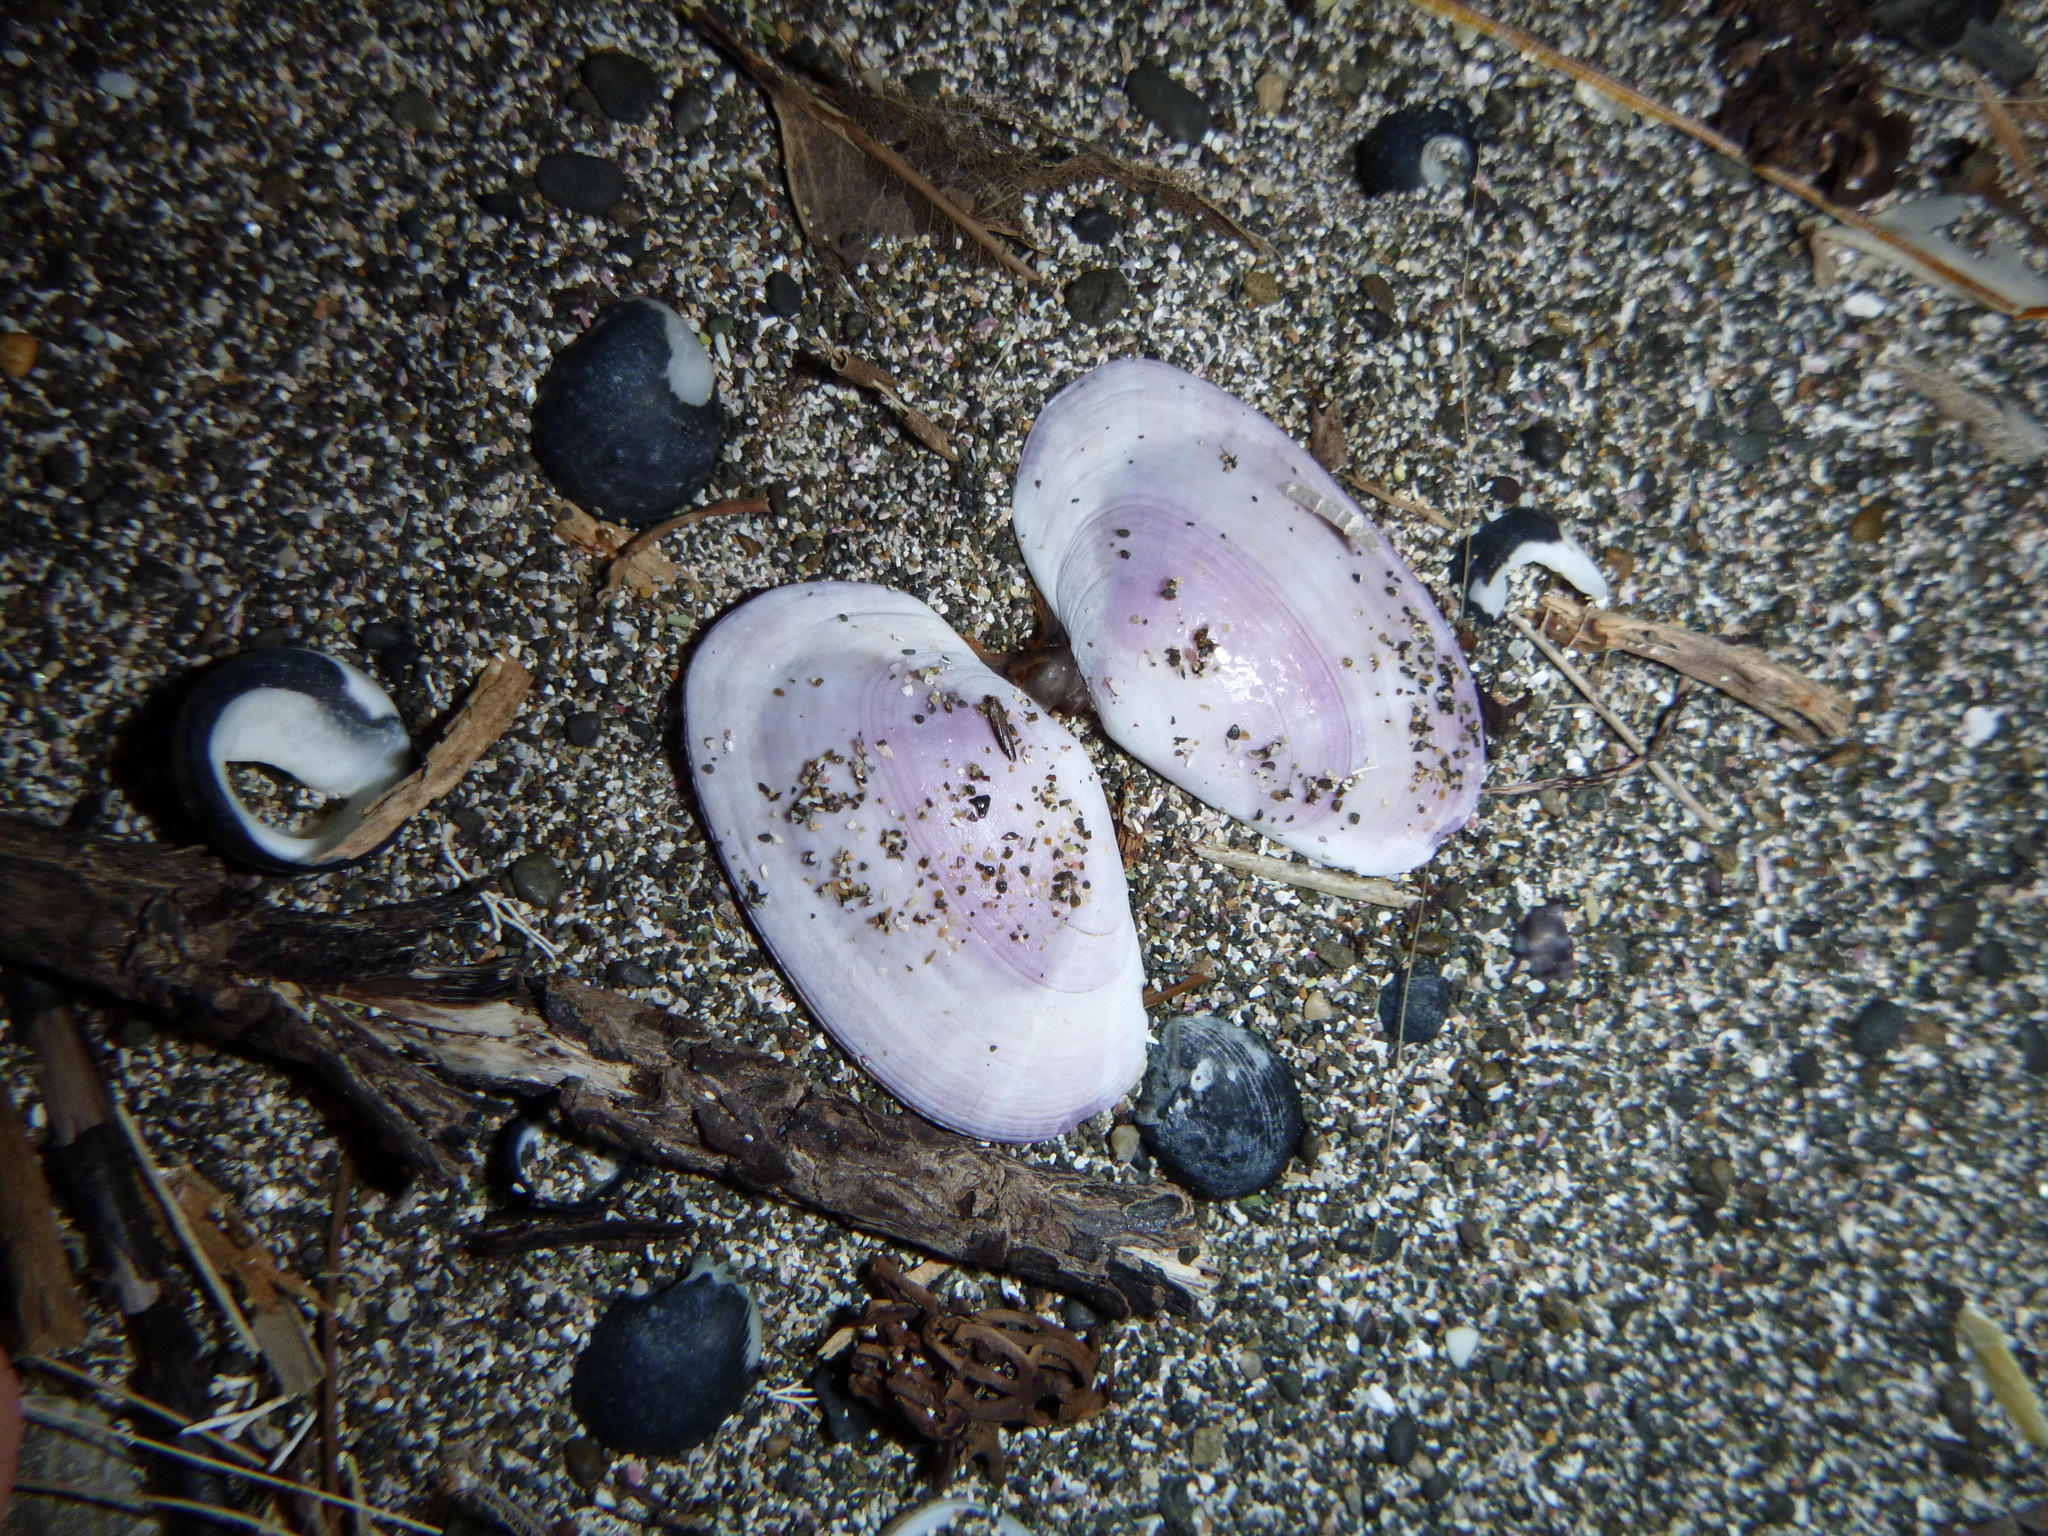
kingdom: Animalia
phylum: Mollusca
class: Bivalvia
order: Cardiida
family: Psammobiidae
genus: Gari
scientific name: Gari stangeri
